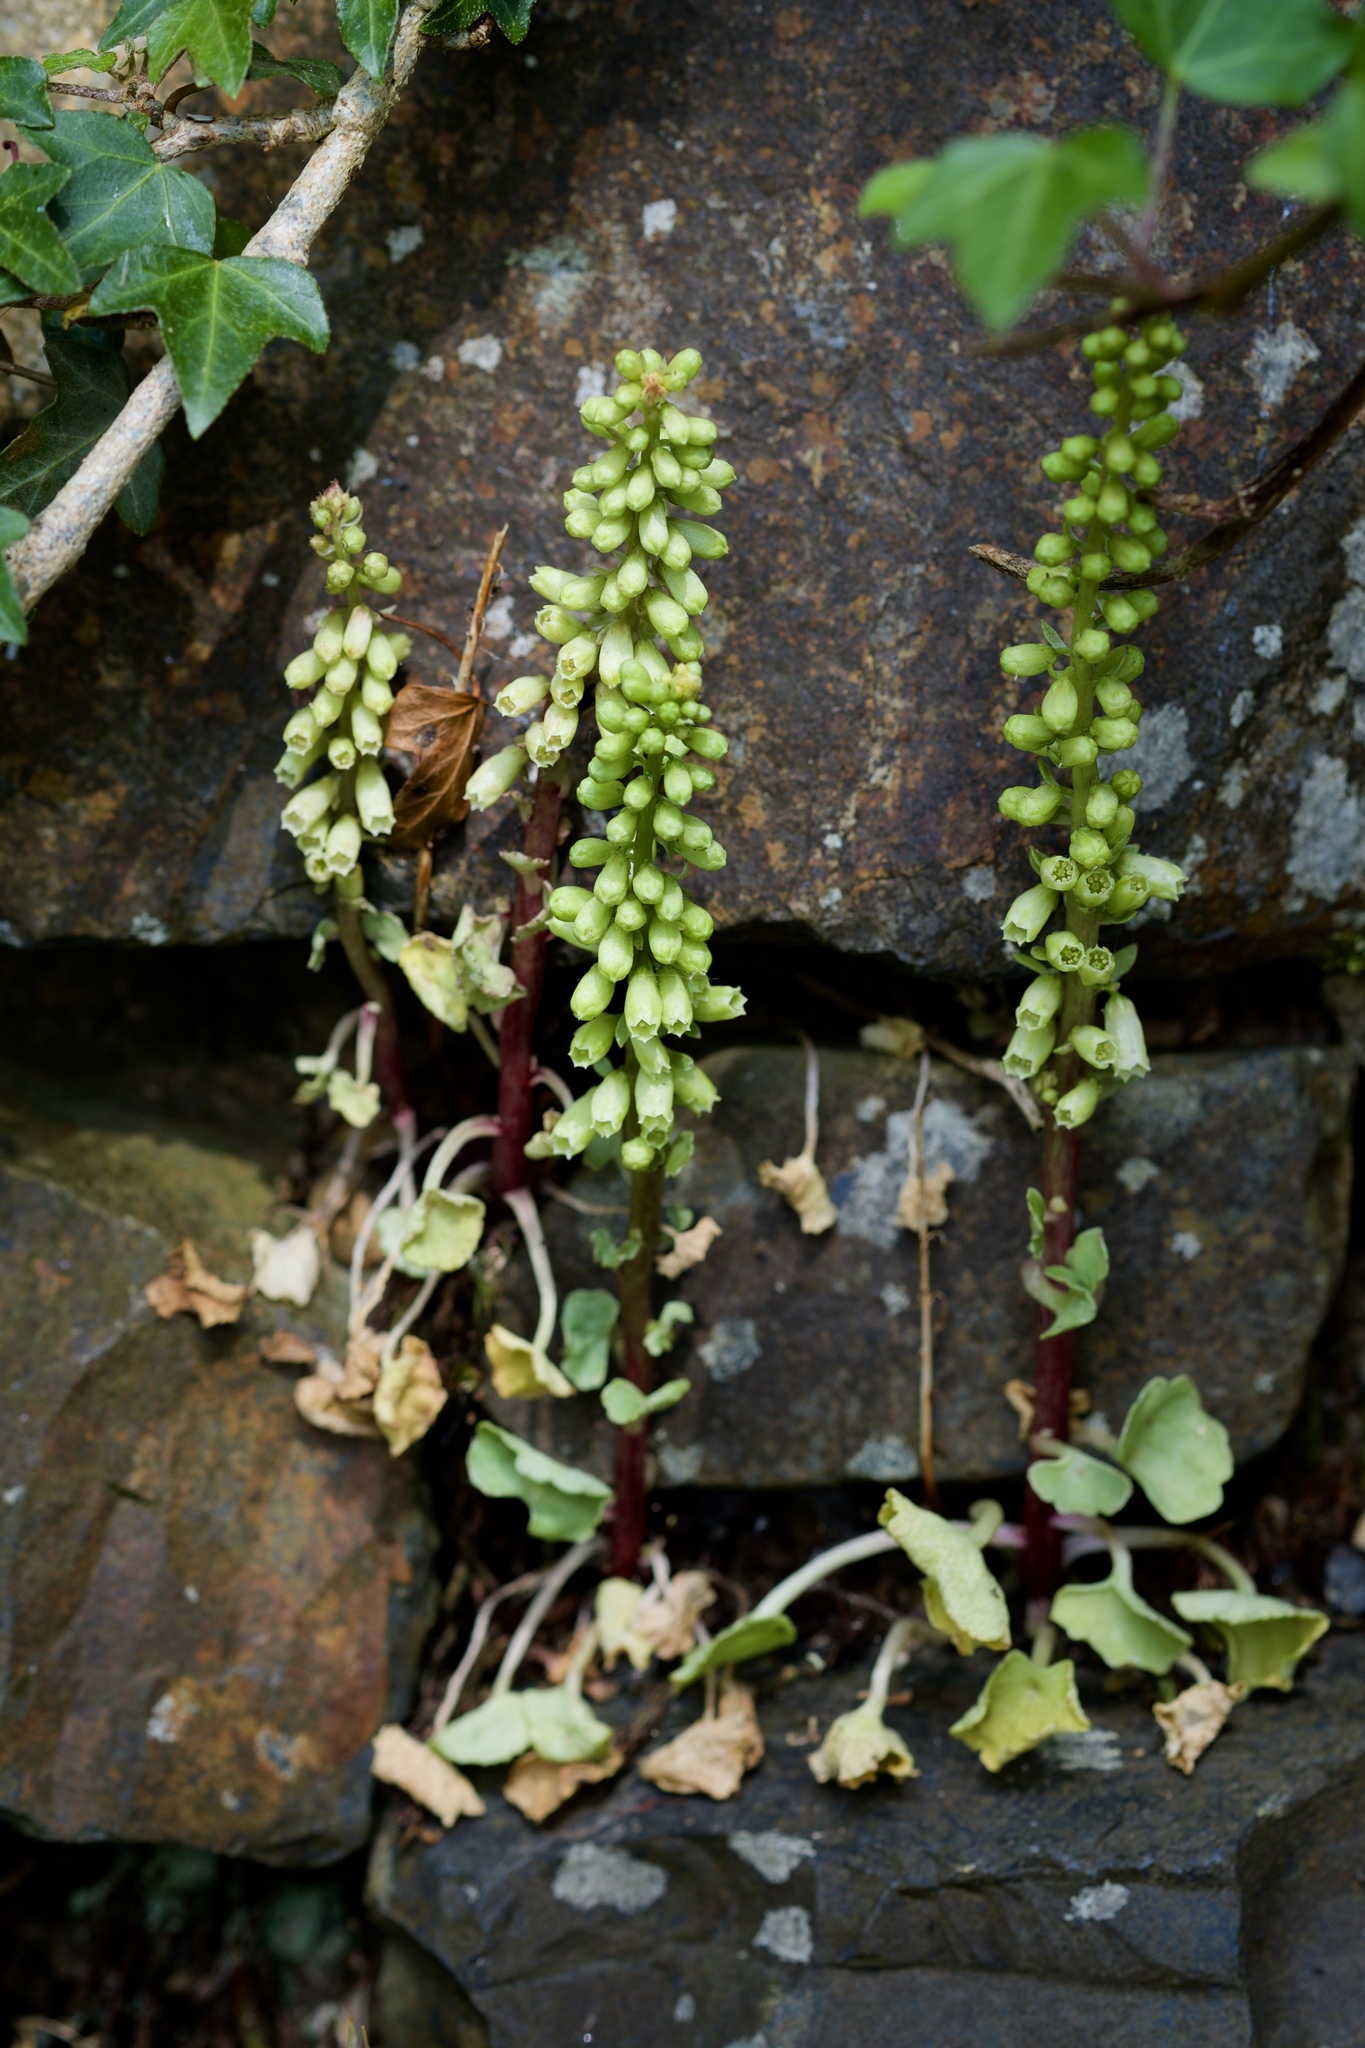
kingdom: Plantae
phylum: Tracheophyta
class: Magnoliopsida
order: Saxifragales
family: Crassulaceae
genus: Umbilicus
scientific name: Umbilicus rupestris
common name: Navelwort
